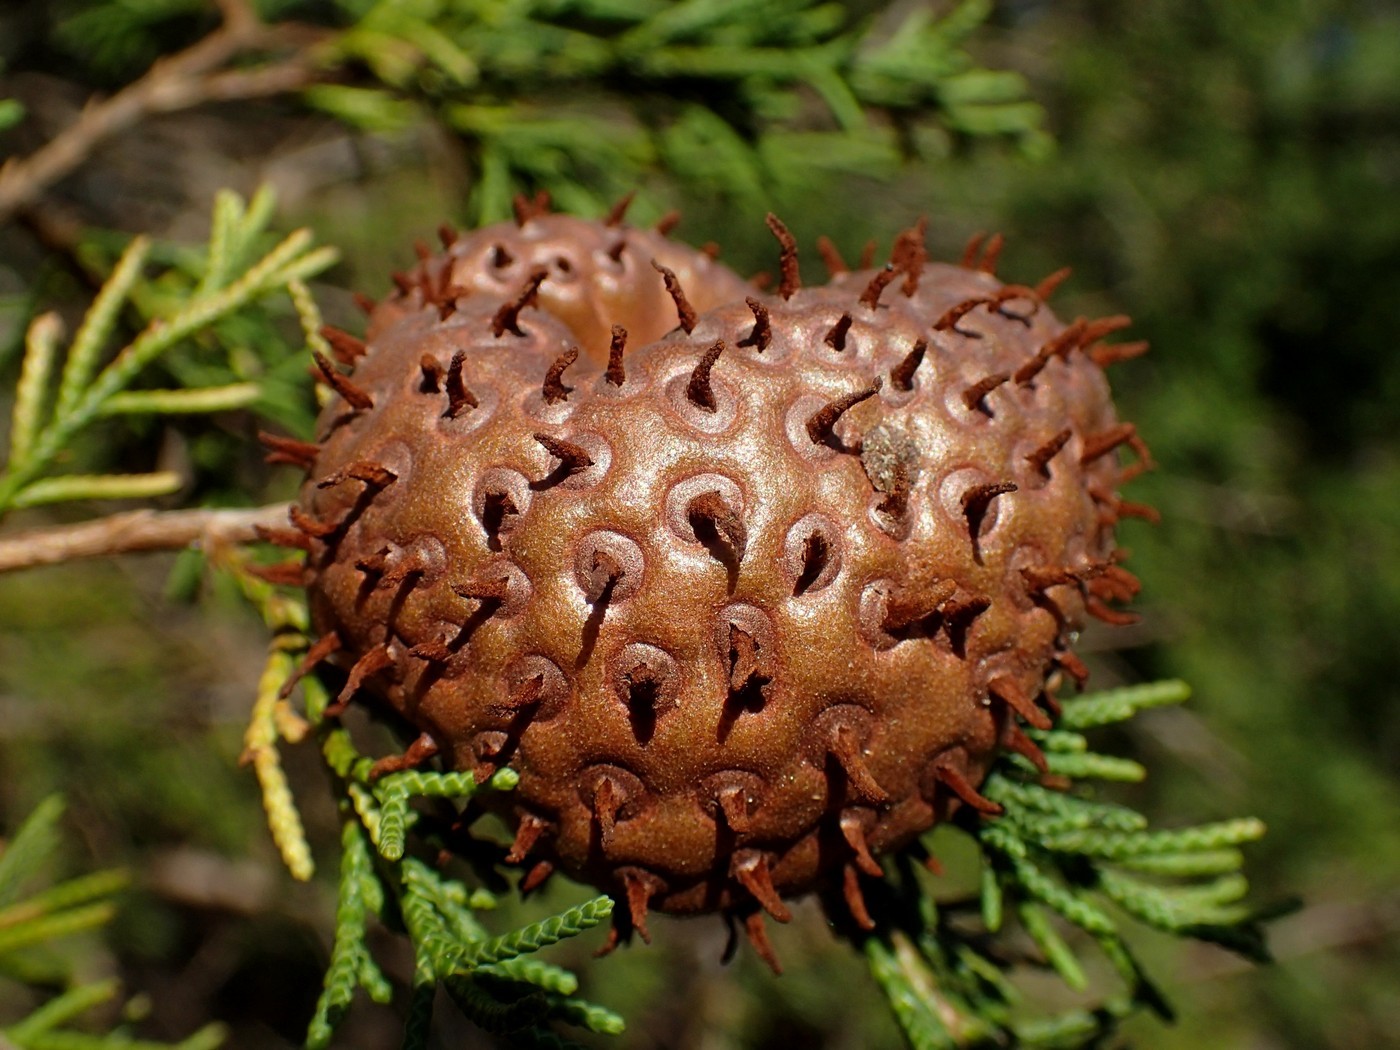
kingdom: Fungi
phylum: Basidiomycota
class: Pucciniomycetes
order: Pucciniales
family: Gymnosporangiaceae
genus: Gymnosporangium
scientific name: Gymnosporangium juniperi-virginianae
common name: Juniper-apple rust
